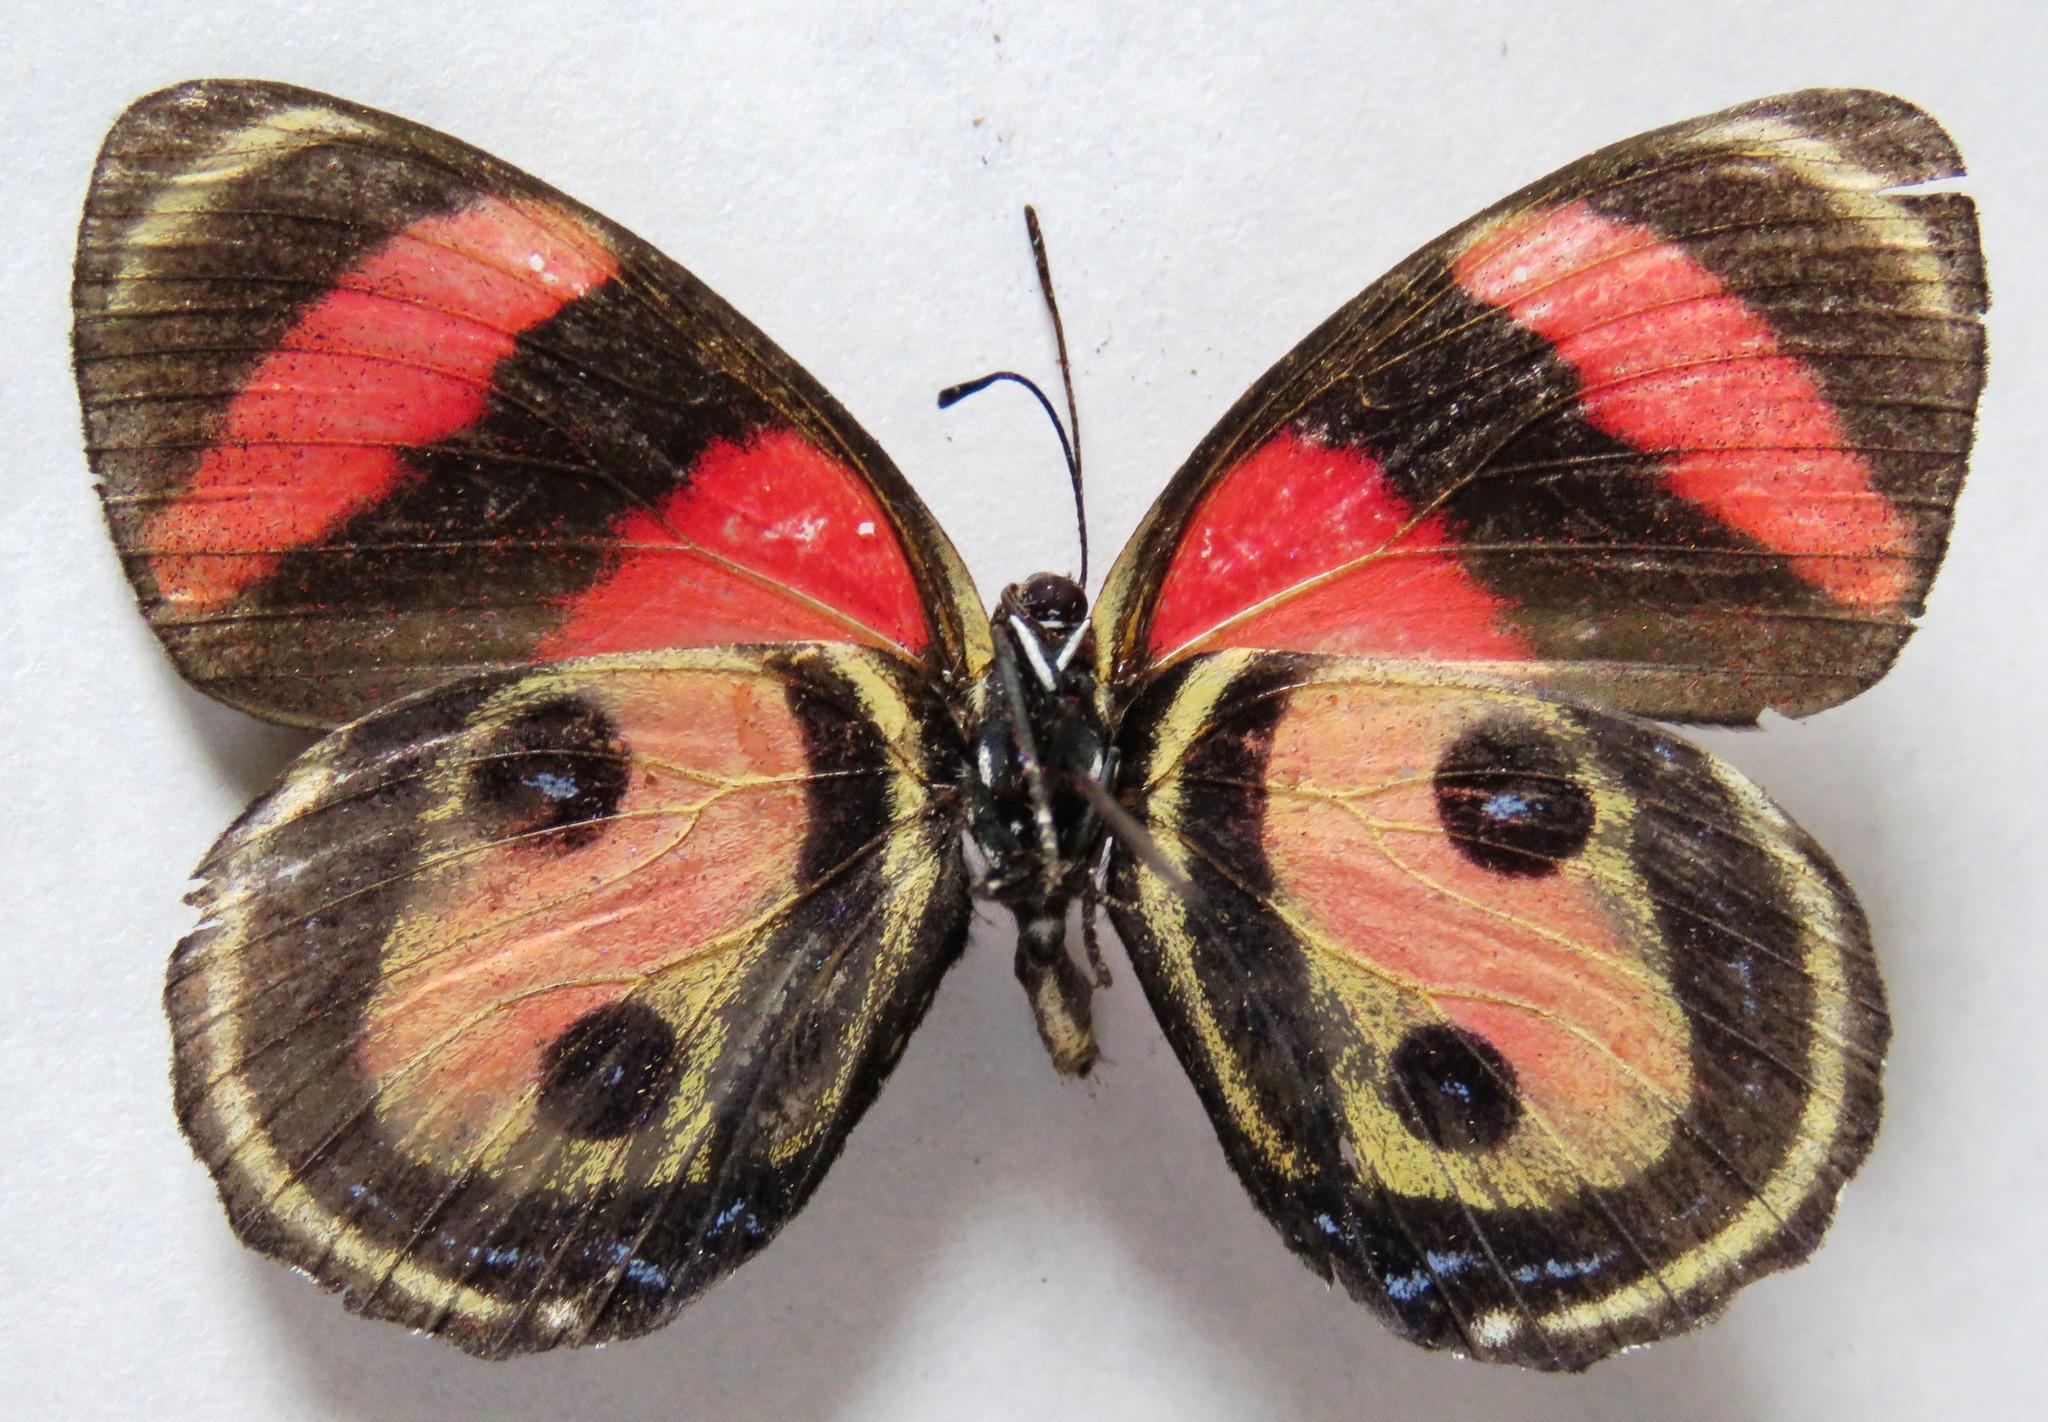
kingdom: Animalia
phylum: Arthropoda
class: Insecta
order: Lepidoptera
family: Nymphalidae
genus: Catagramma
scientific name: Catagramma Callicore pitheas
